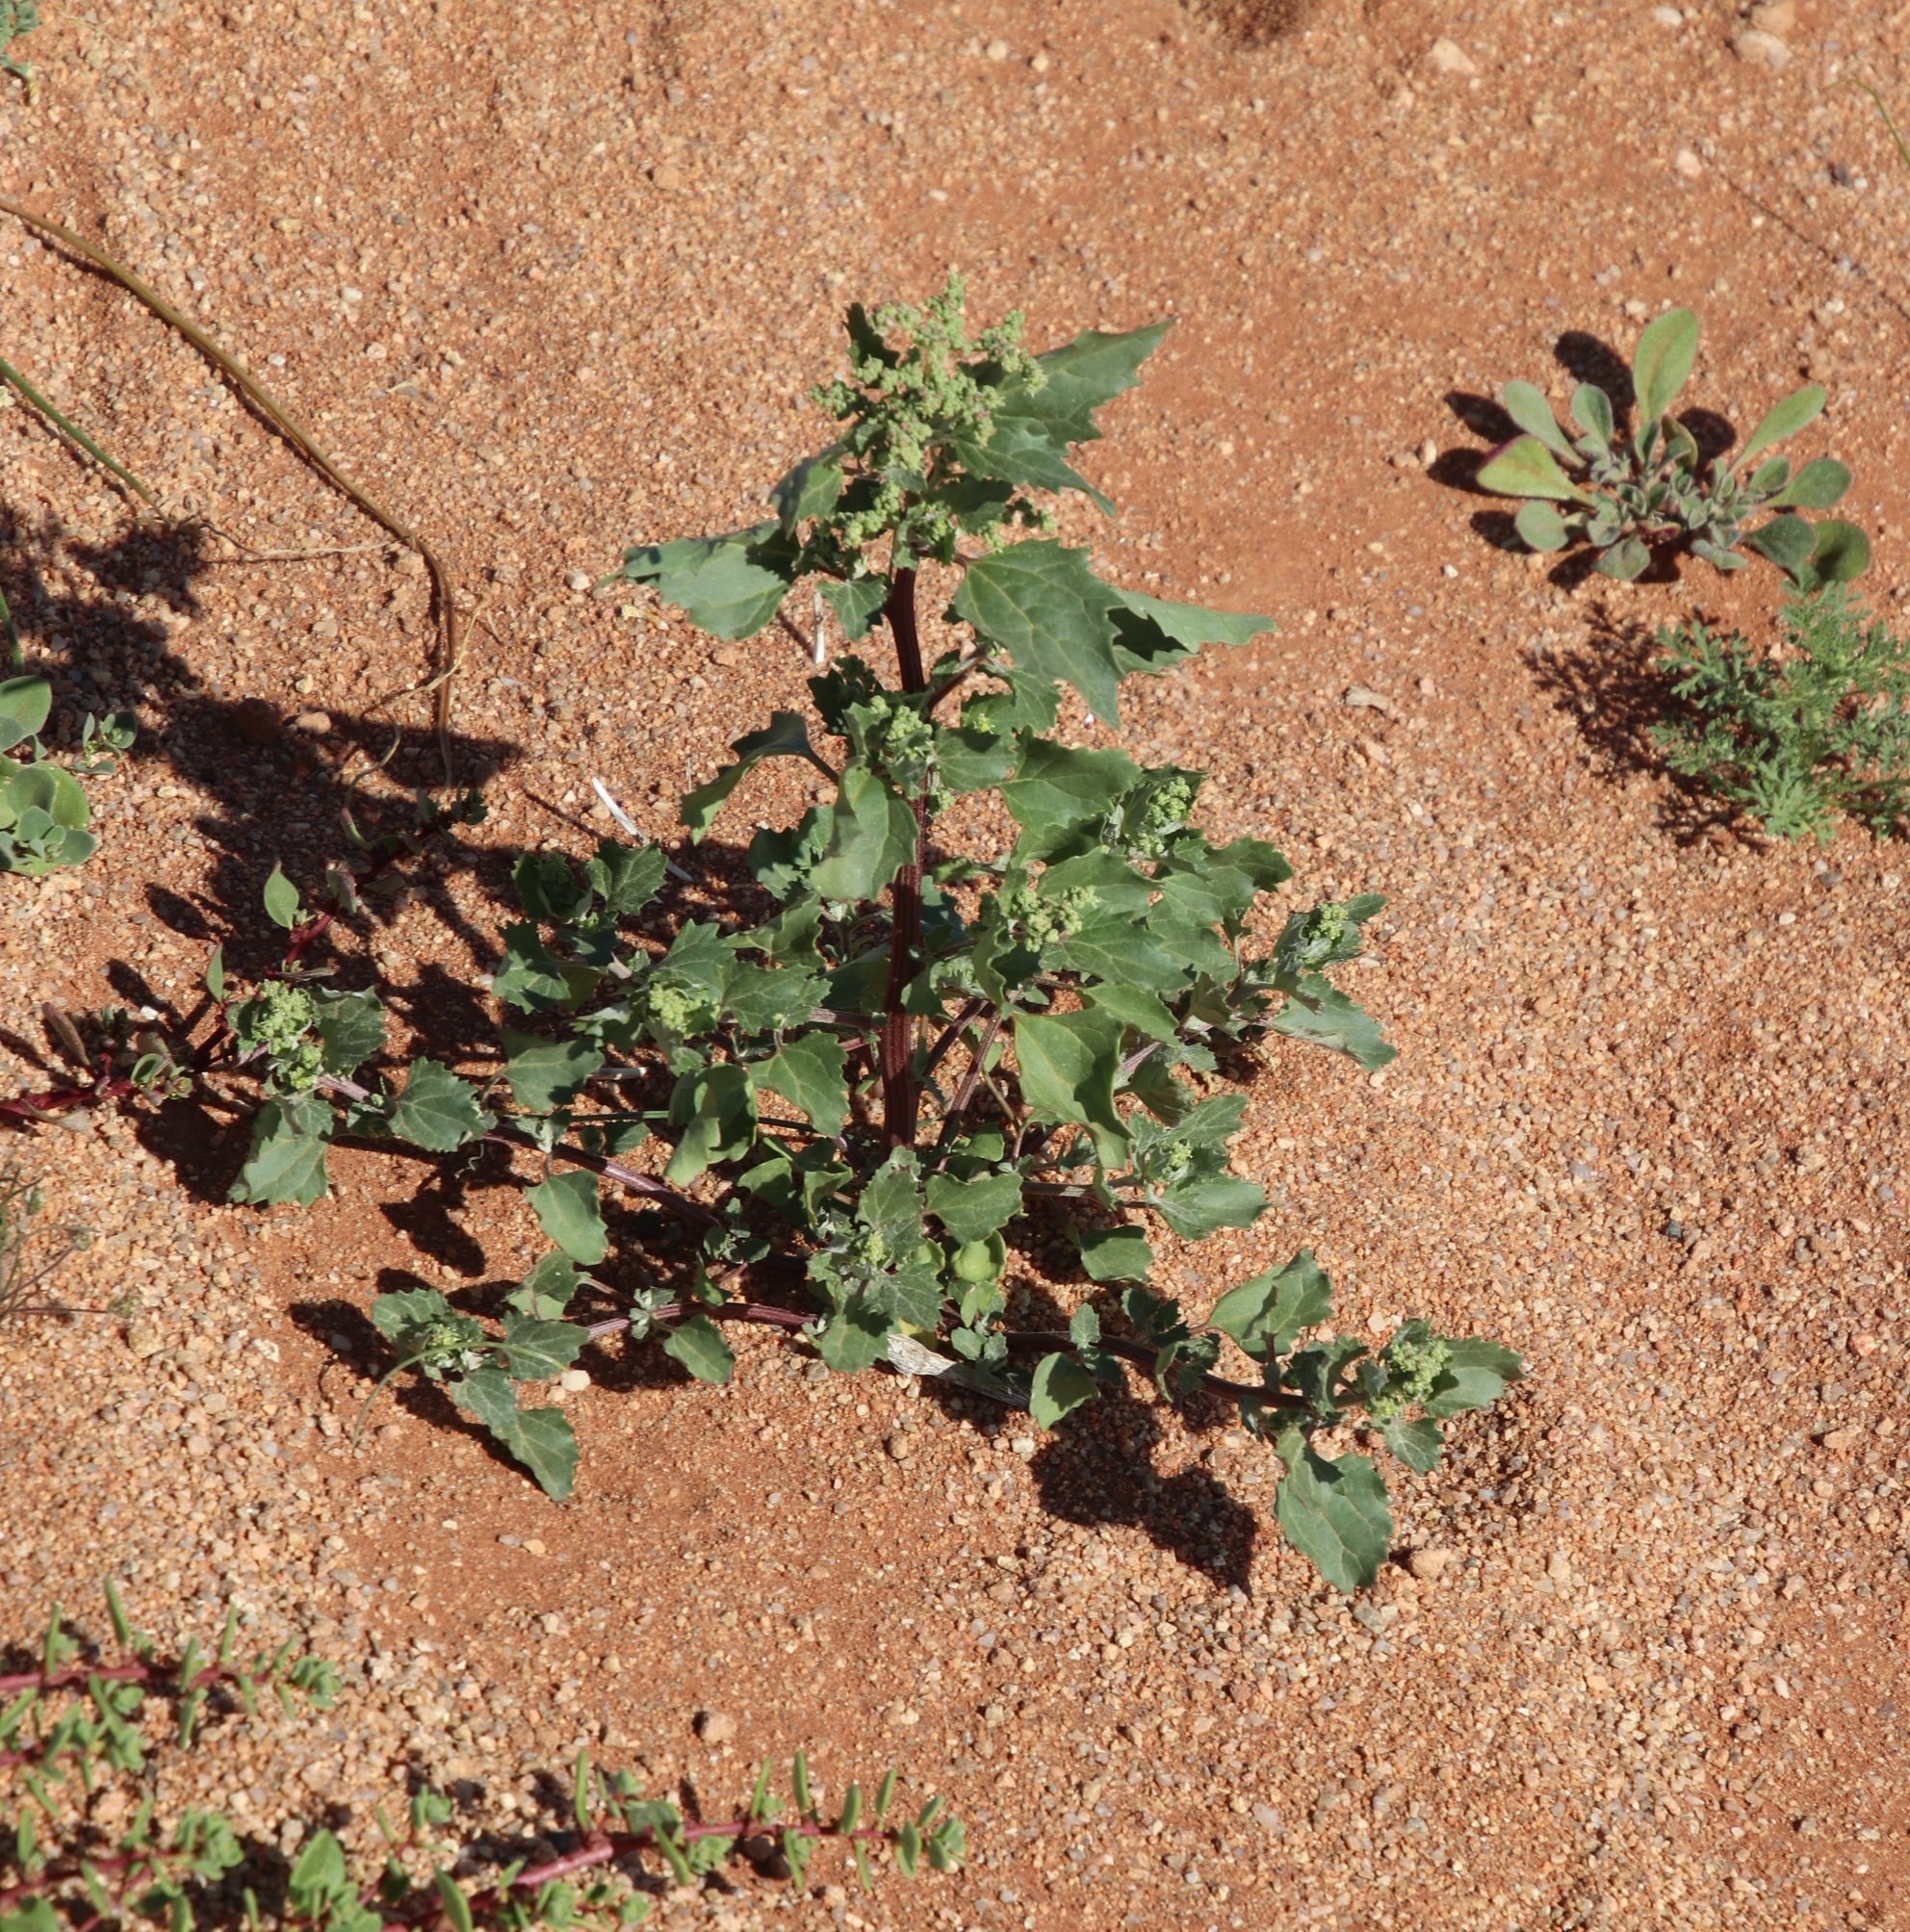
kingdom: Plantae
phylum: Tracheophyta
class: Magnoliopsida
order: Caryophyllales
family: Amaranthaceae
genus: Chenopodiastrum
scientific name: Chenopodiastrum murale
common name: Sowbane
